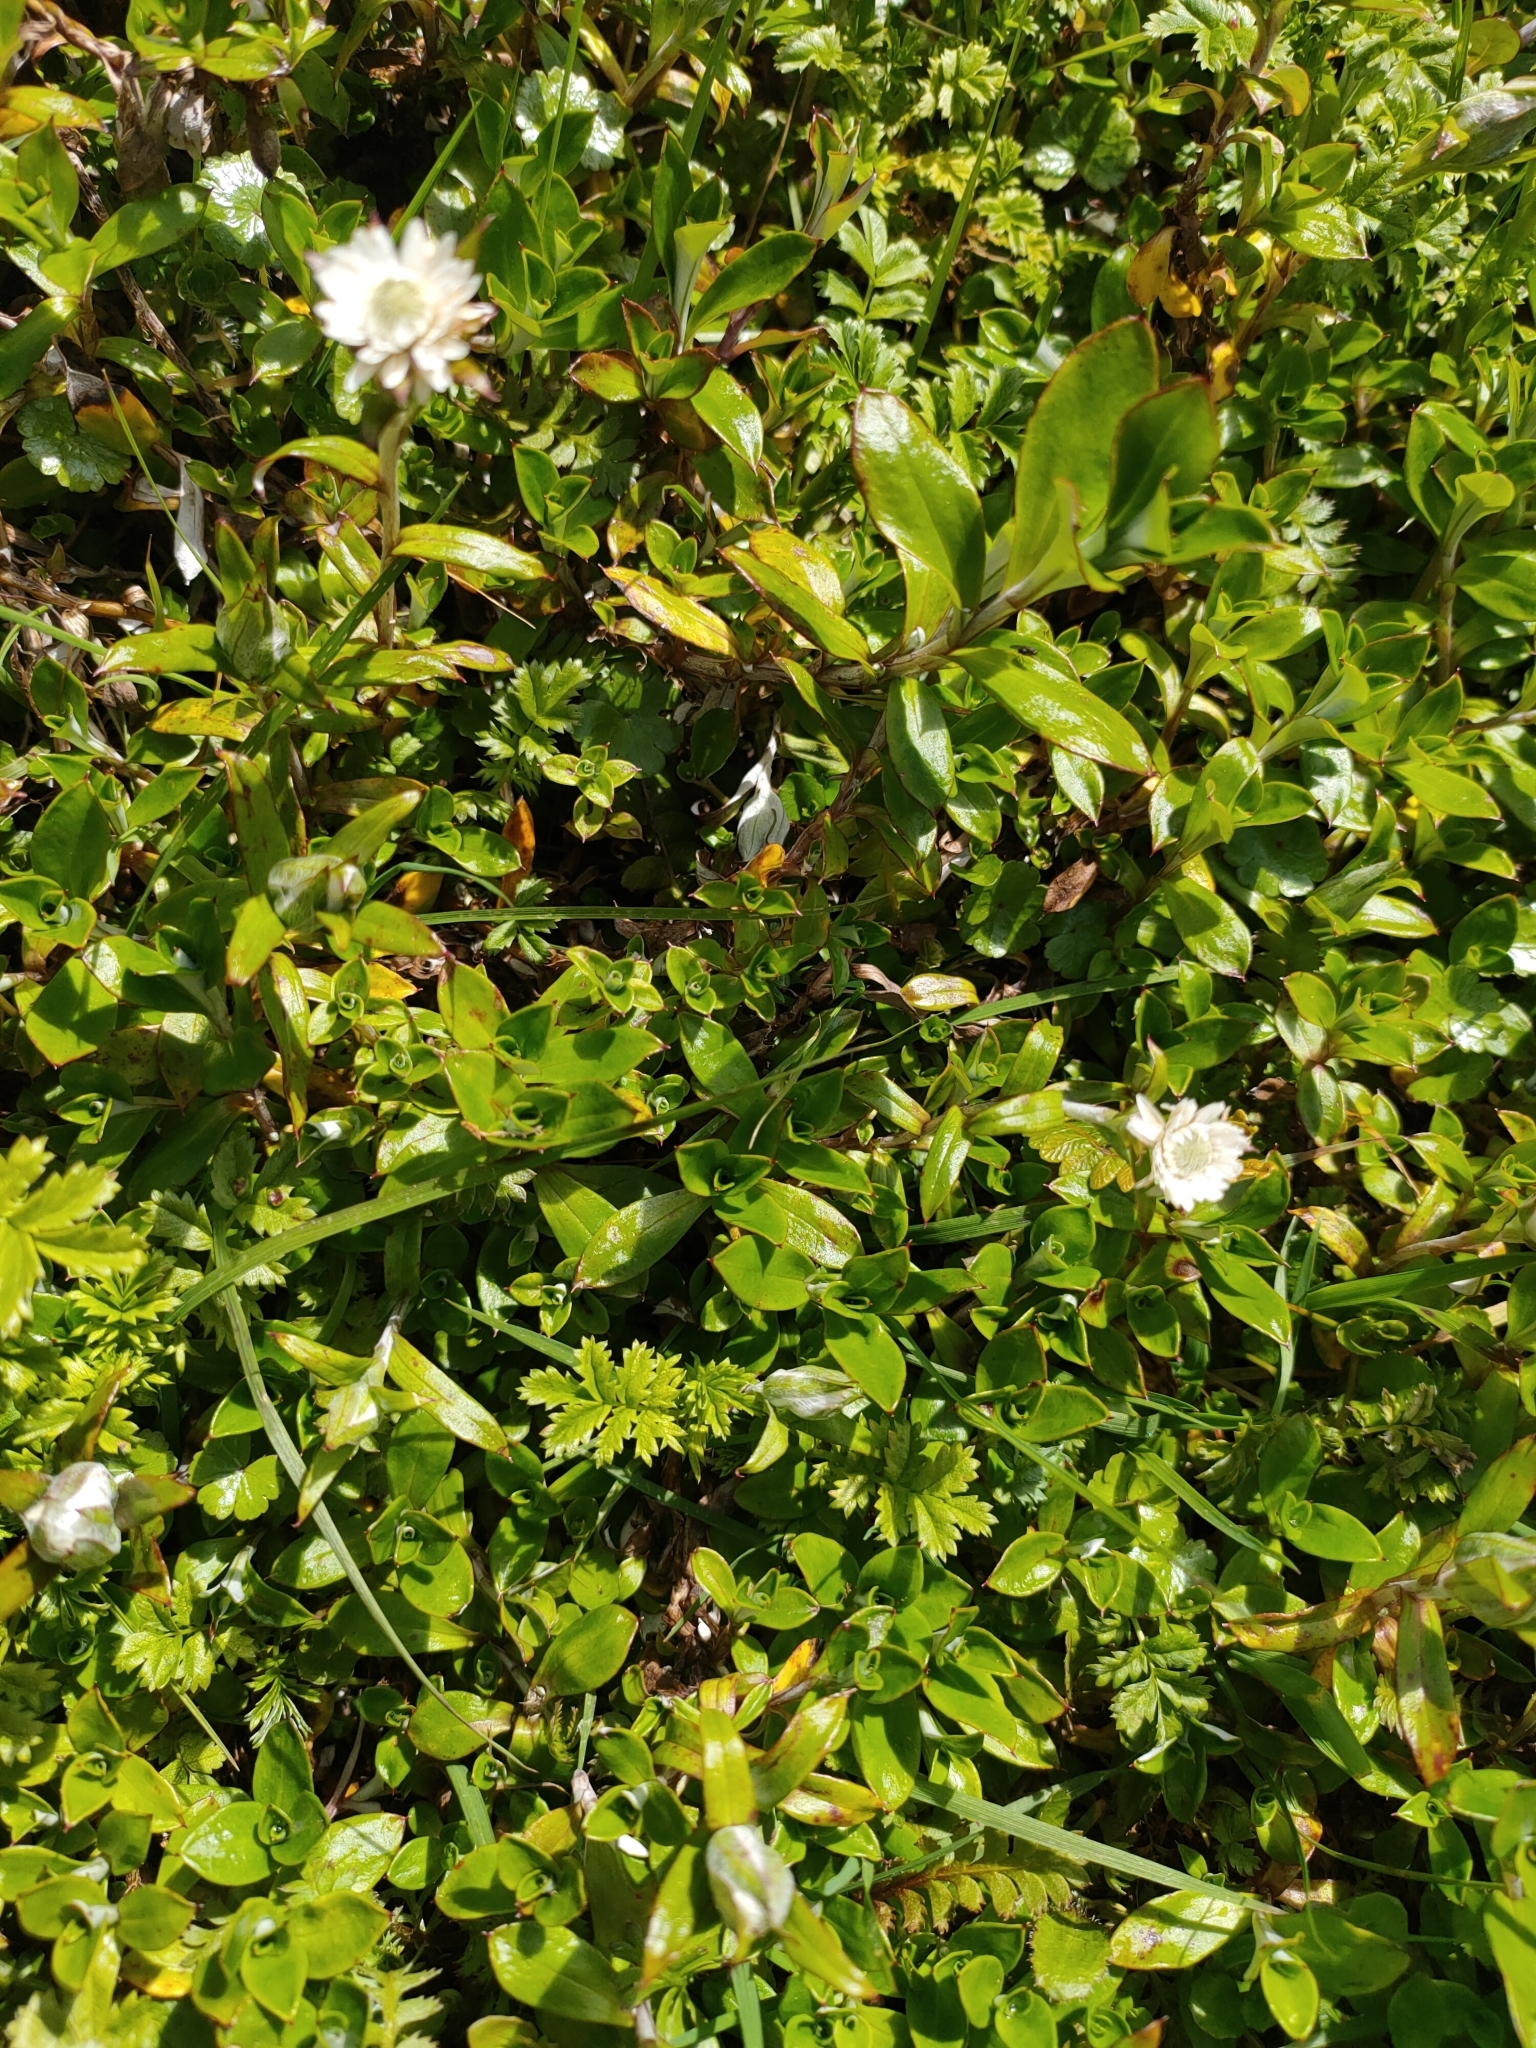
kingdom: Plantae
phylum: Tracheophyta
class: Magnoliopsida
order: Asterales
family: Asteraceae
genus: Anaphalioides
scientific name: Anaphalioides hookeri
